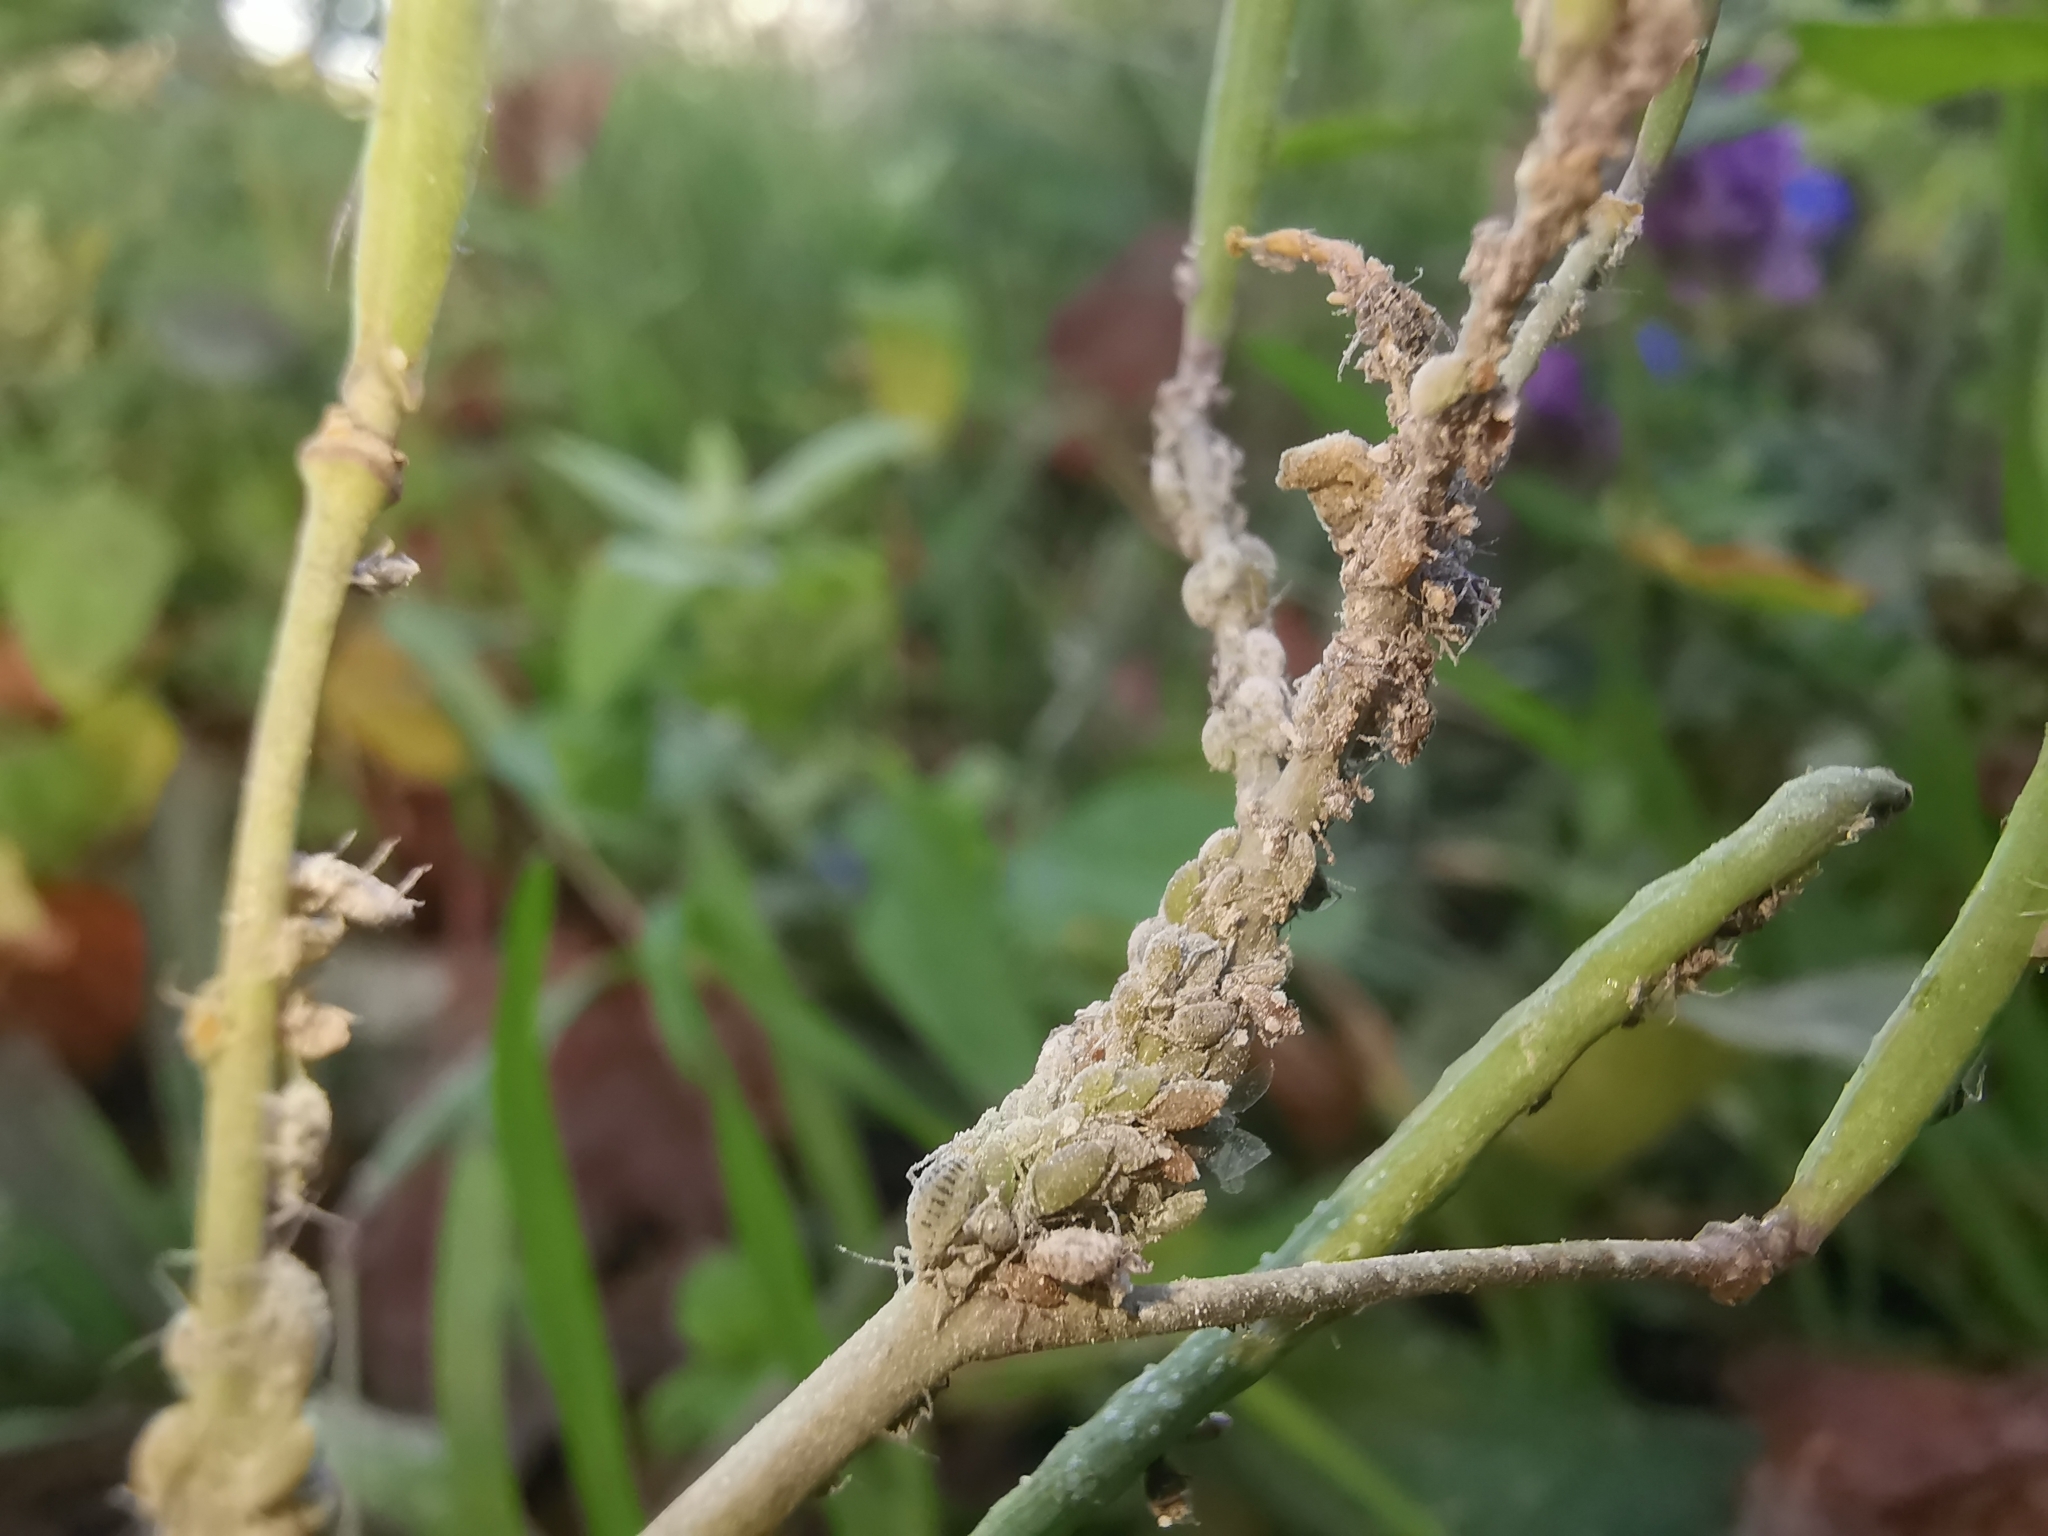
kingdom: Animalia
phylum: Arthropoda
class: Insecta
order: Hemiptera
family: Aphididae
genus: Brevicoryne
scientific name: Brevicoryne brassicae
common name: Cabbage aphid
